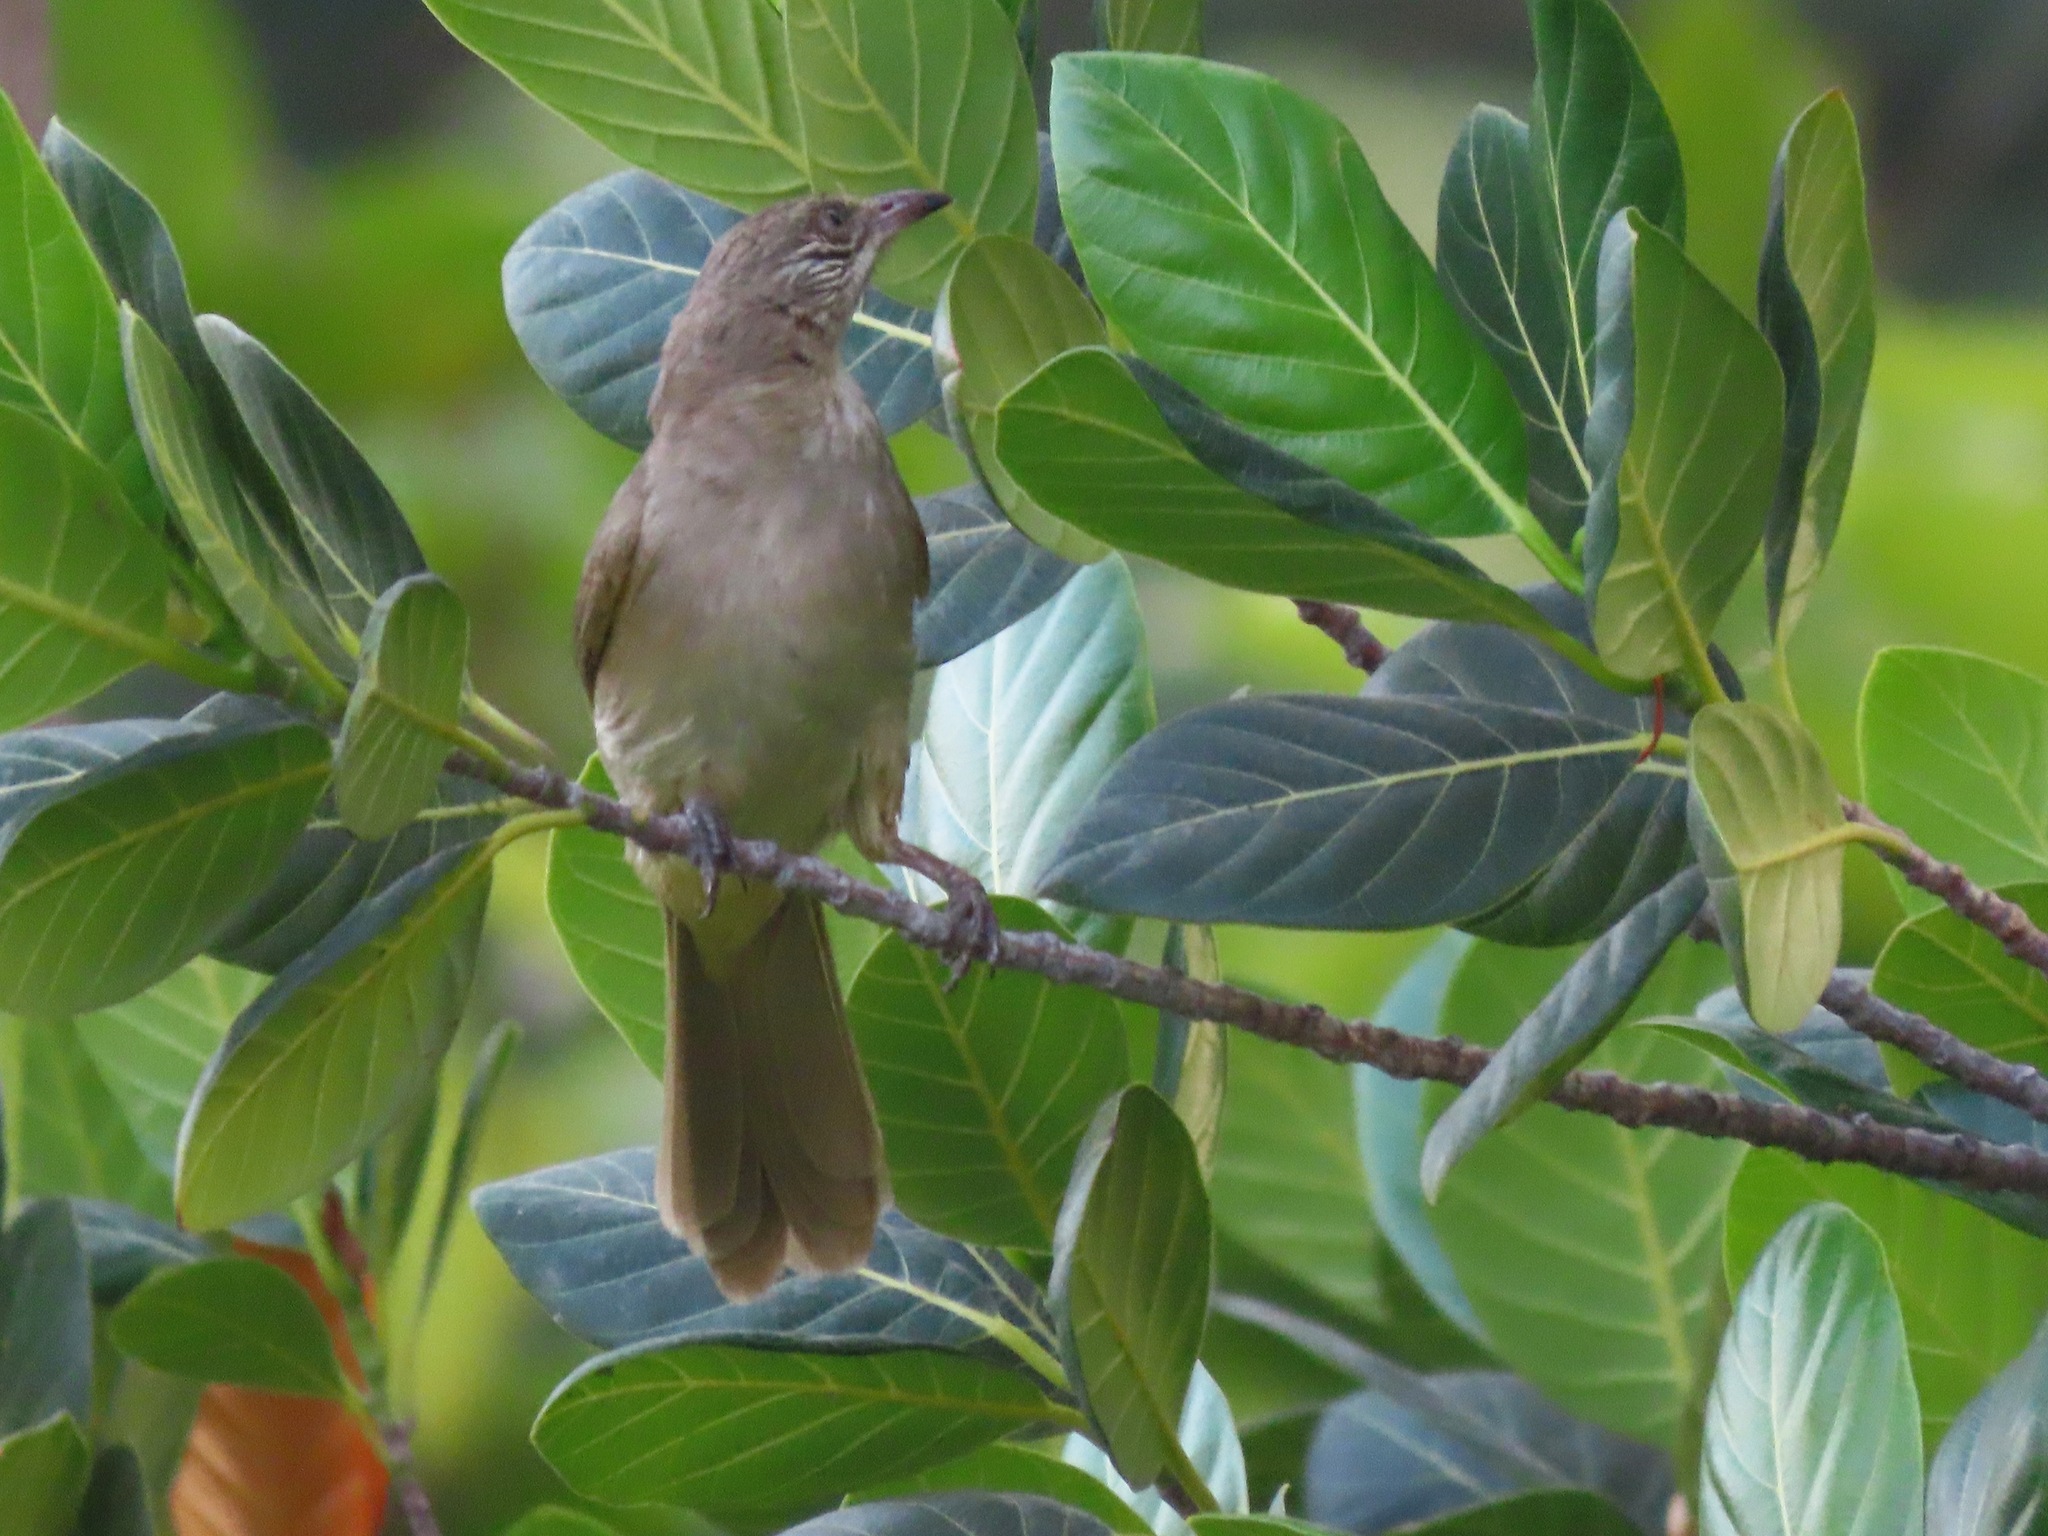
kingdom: Animalia
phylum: Chordata
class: Aves
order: Passeriformes
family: Pycnonotidae
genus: Pycnonotus
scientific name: Pycnonotus blanfordi
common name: Streak-eared bulbul
